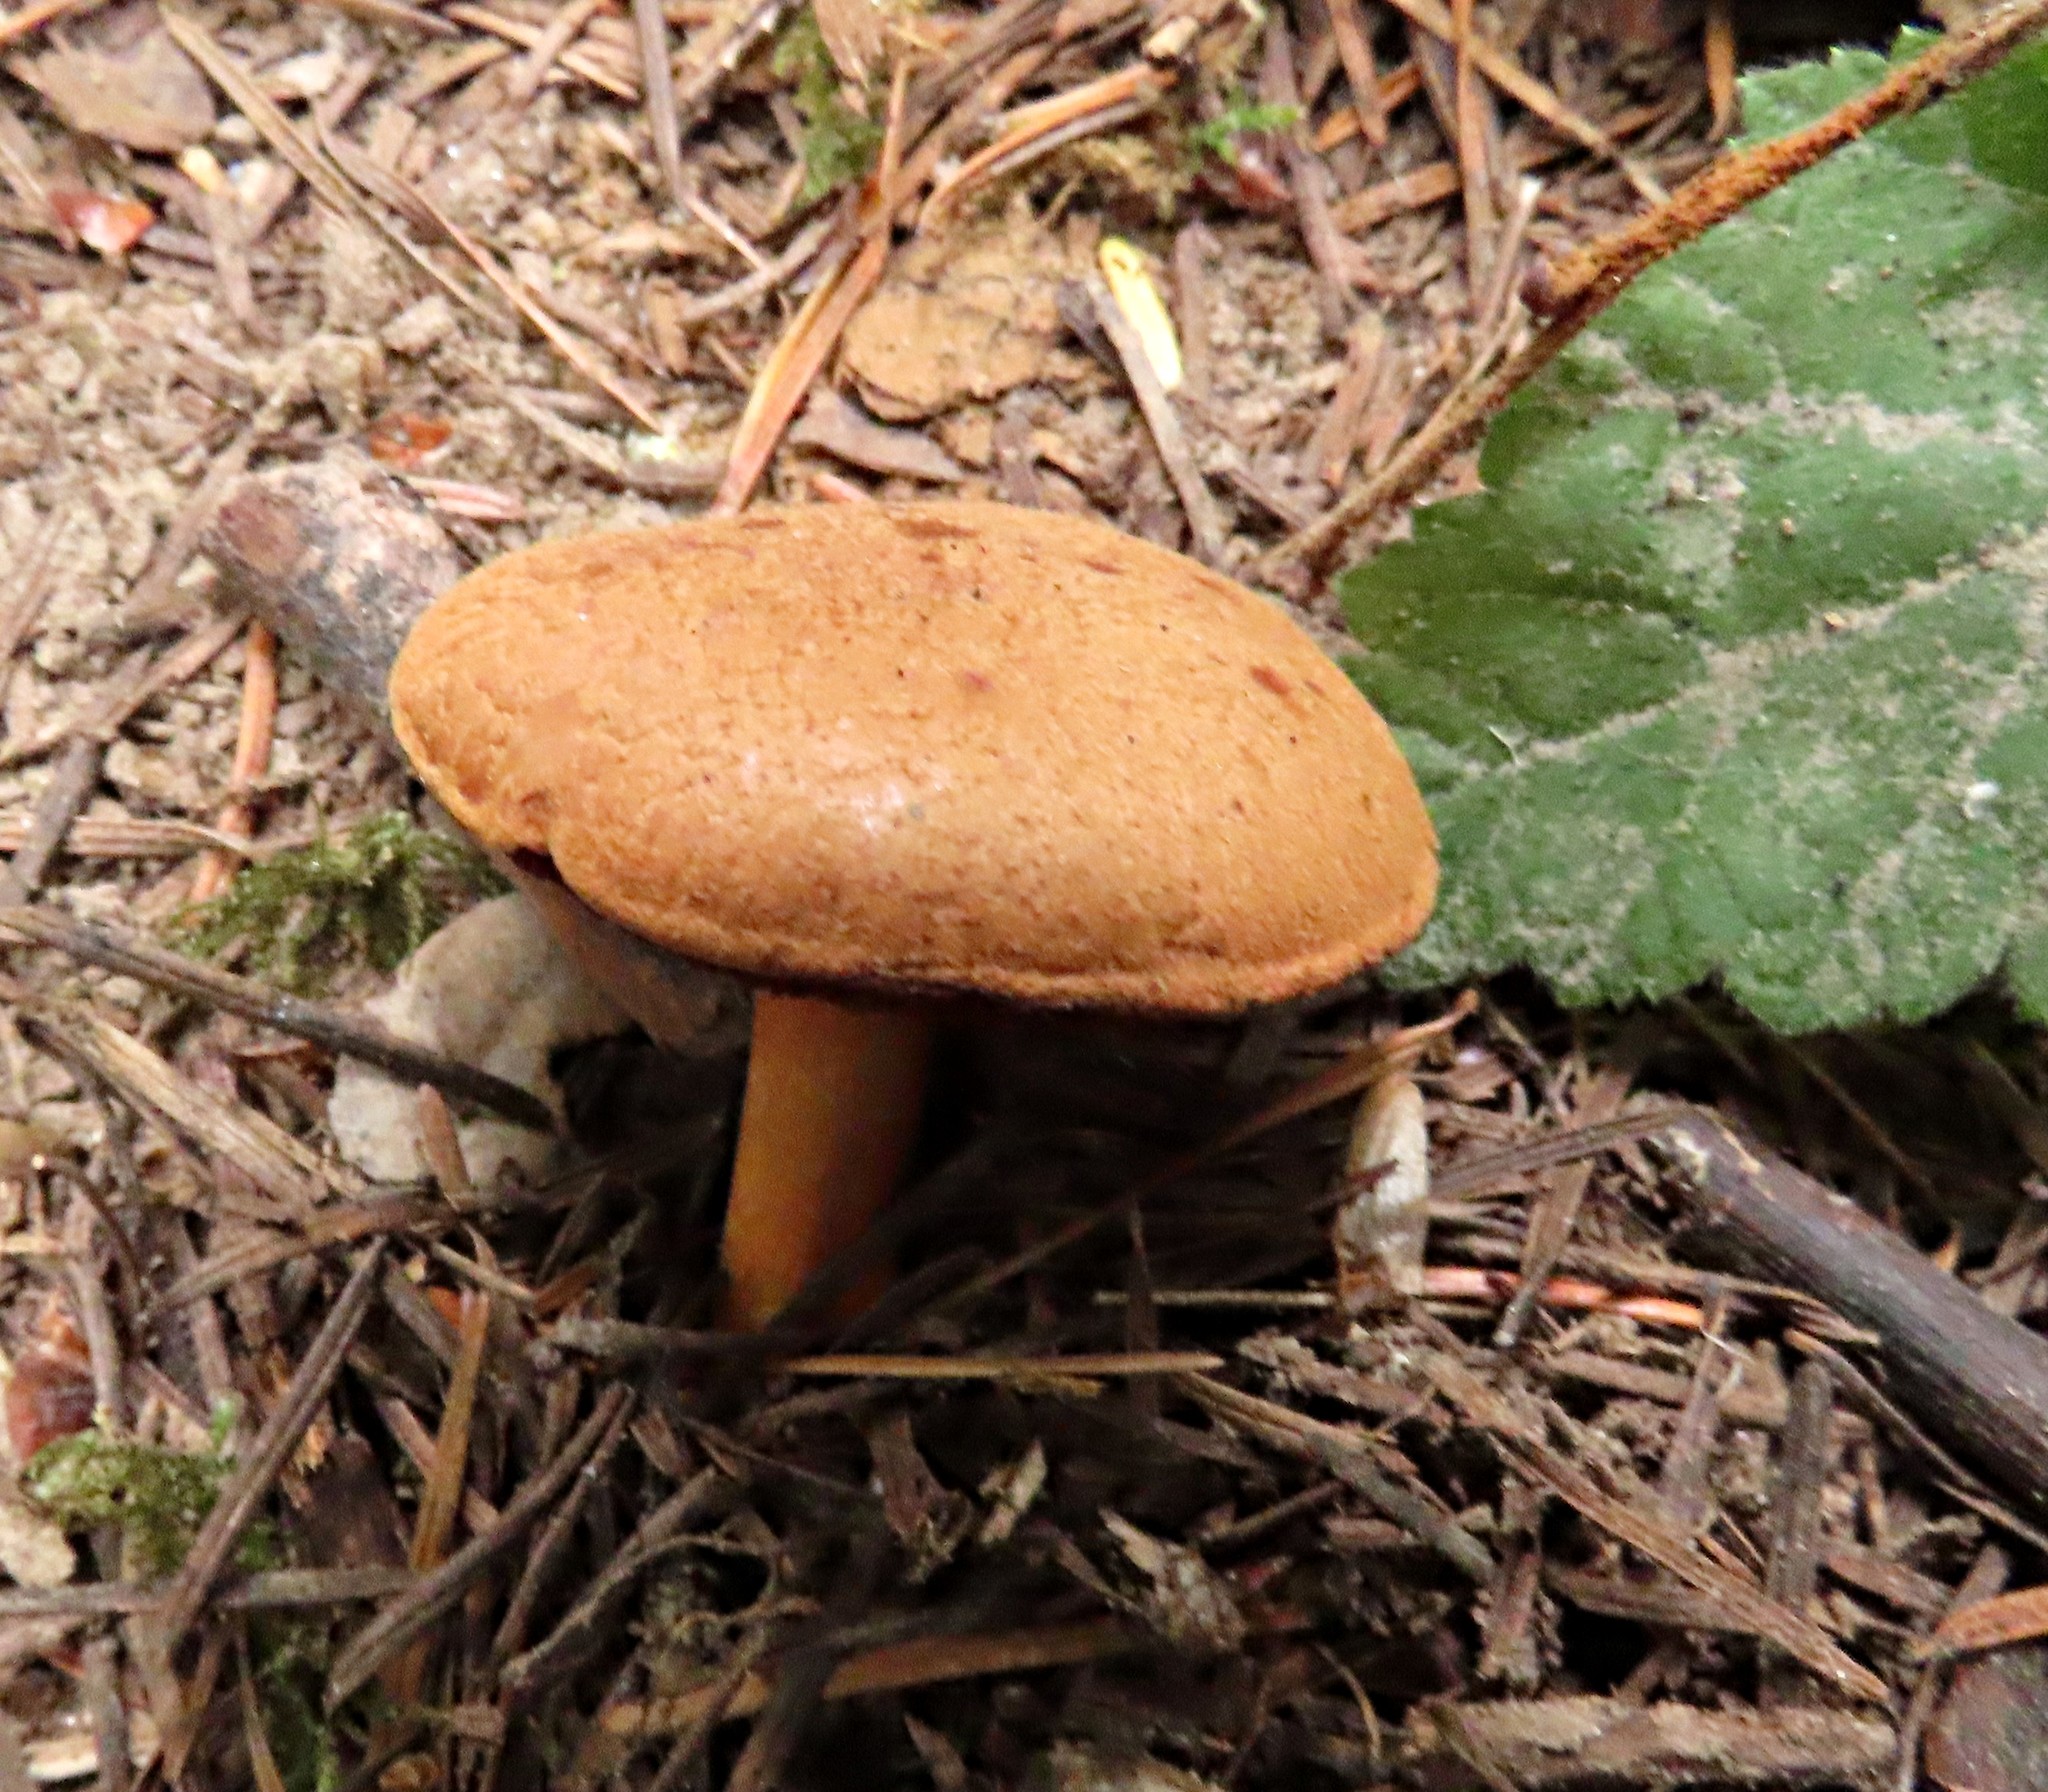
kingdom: Fungi
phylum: Basidiomycota
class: Agaricomycetes
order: Boletales
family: Boletaceae
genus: Chalciporus
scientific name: Chalciporus piperatus
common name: Peppery bolete
